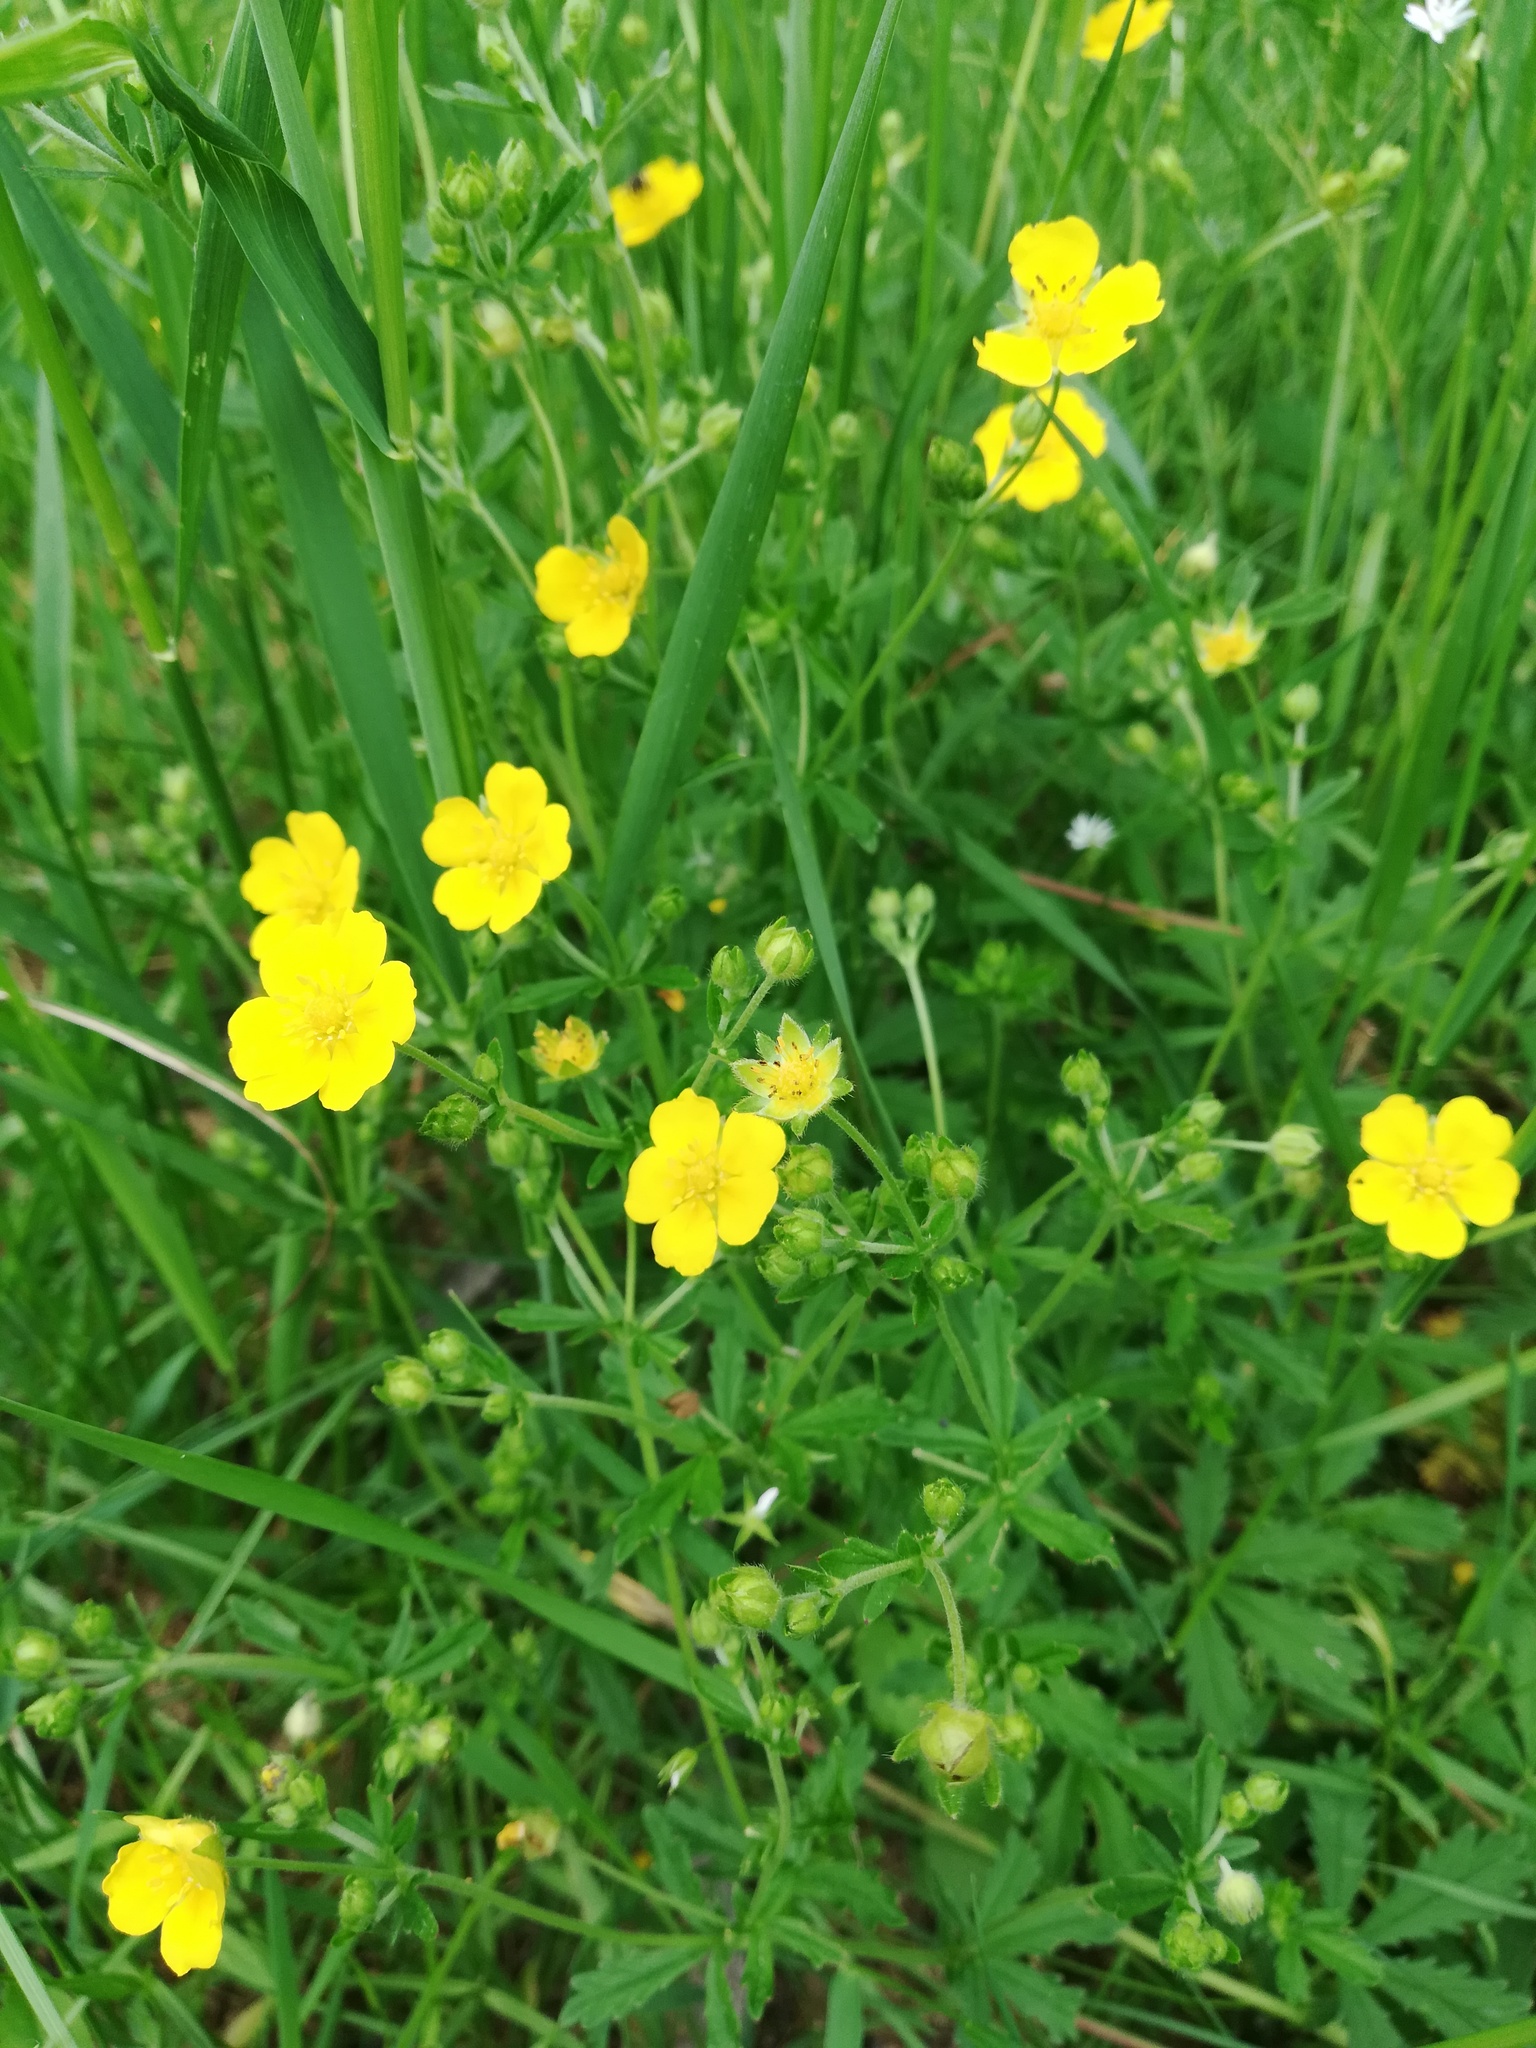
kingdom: Plantae
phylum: Tracheophyta
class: Magnoliopsida
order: Rosales
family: Rosaceae
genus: Potentilla
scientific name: Potentilla argentea
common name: Hoary cinquefoil
